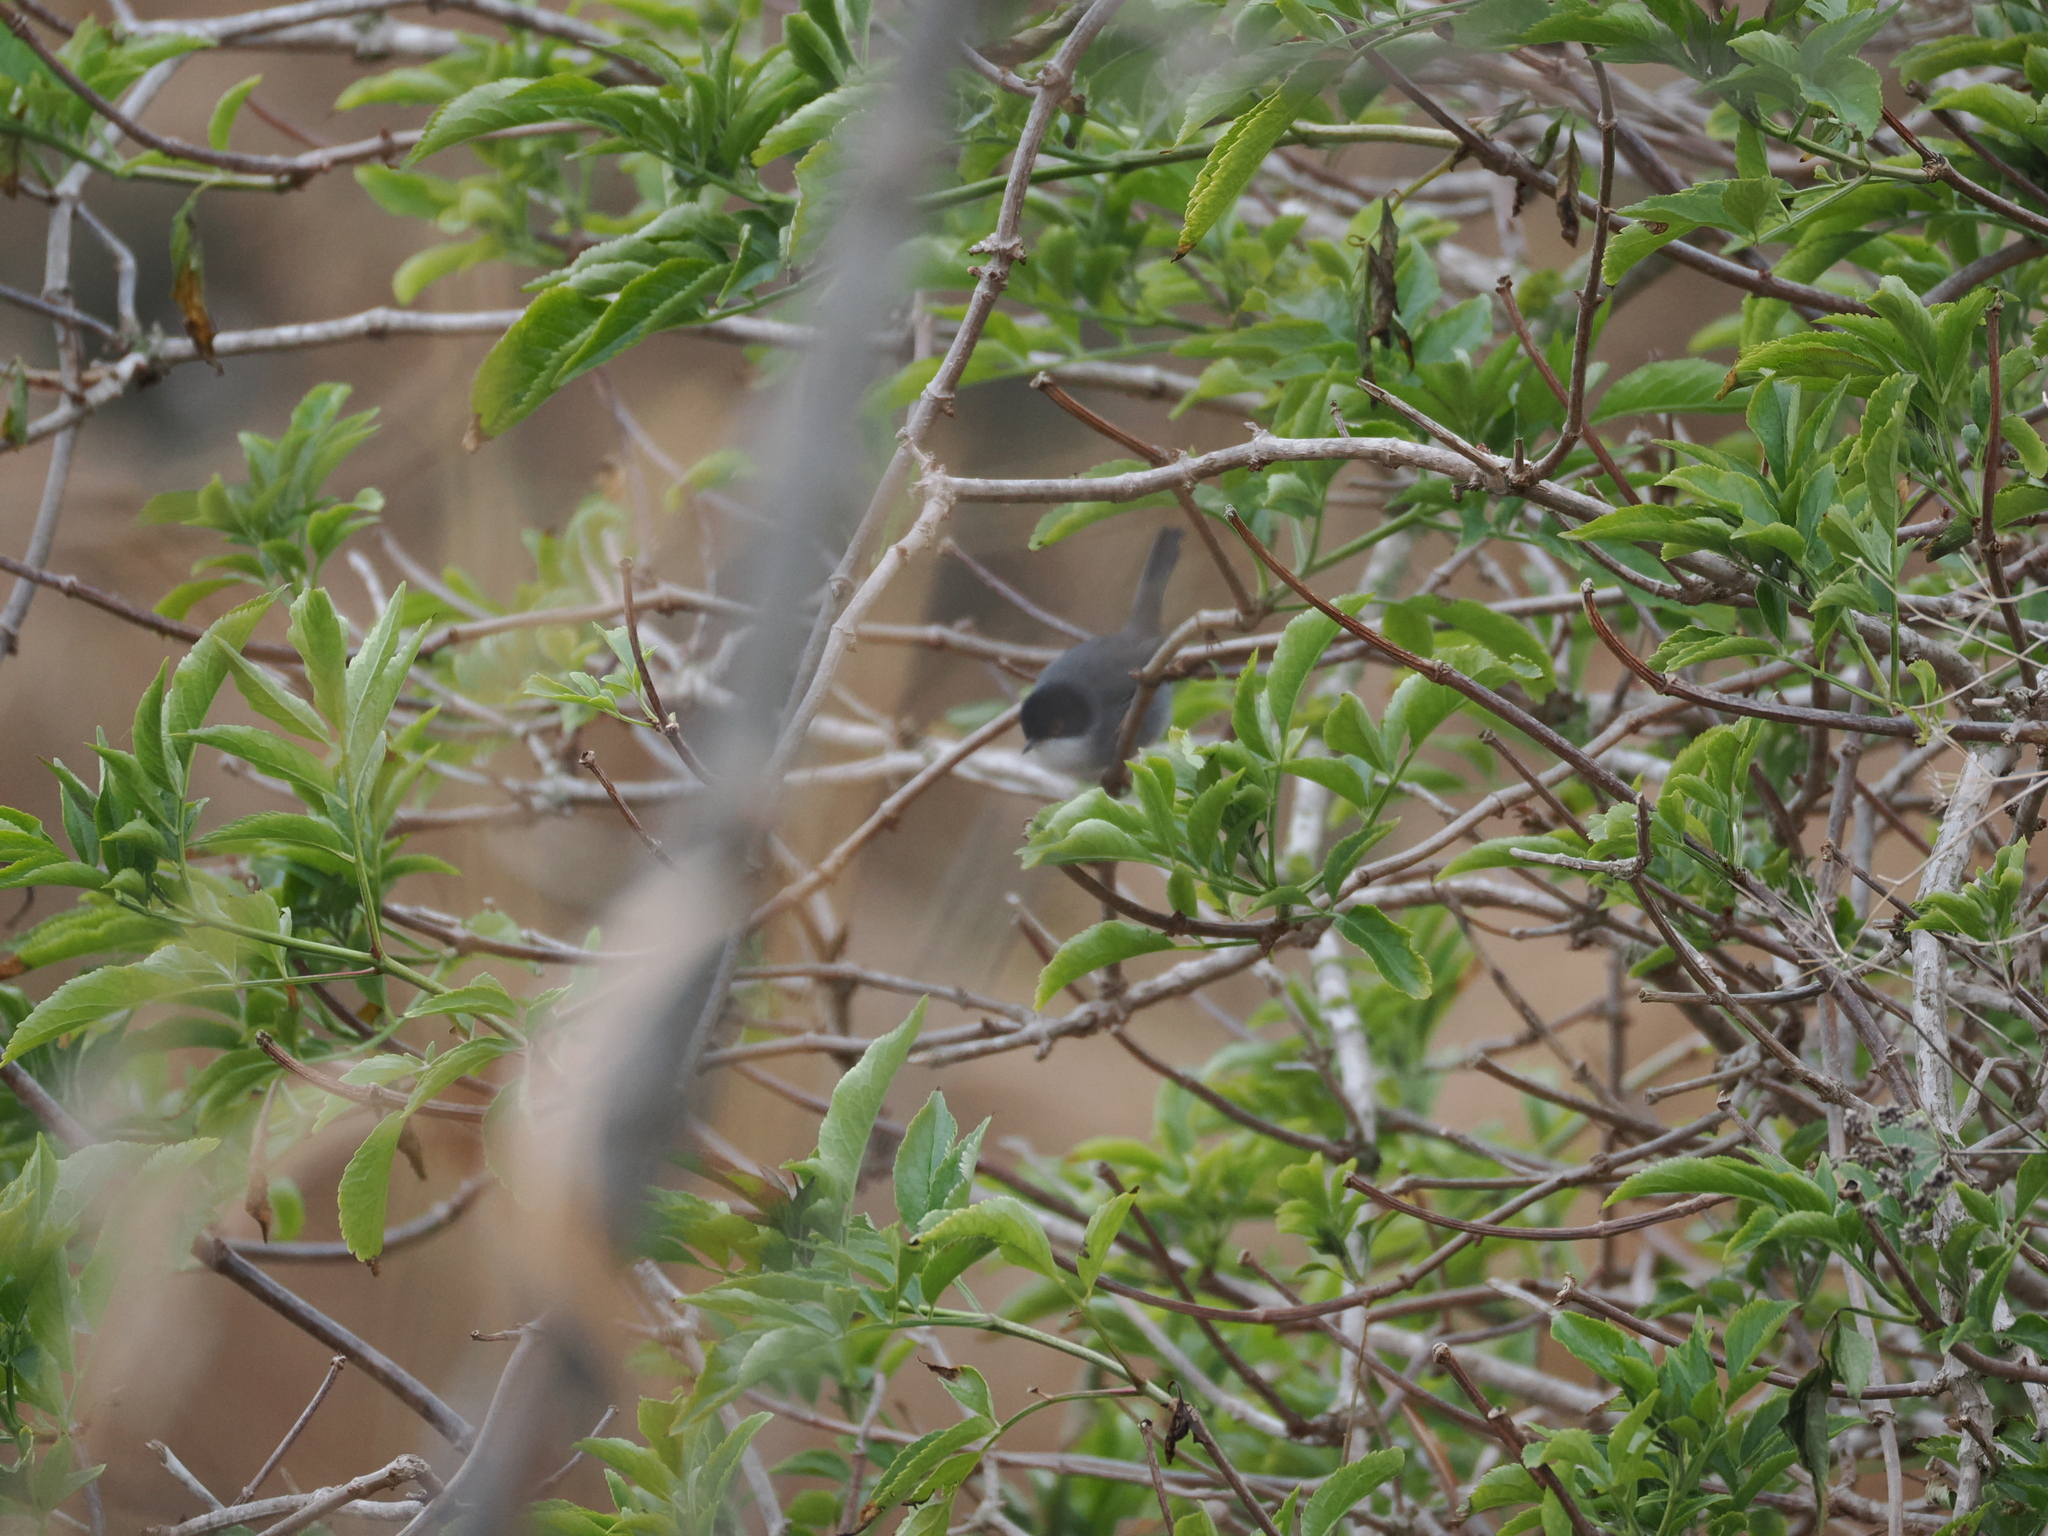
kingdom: Animalia
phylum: Chordata
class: Aves
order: Passeriformes
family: Sylviidae
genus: Curruca
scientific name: Curruca melanocephala
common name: Sardinian warbler
